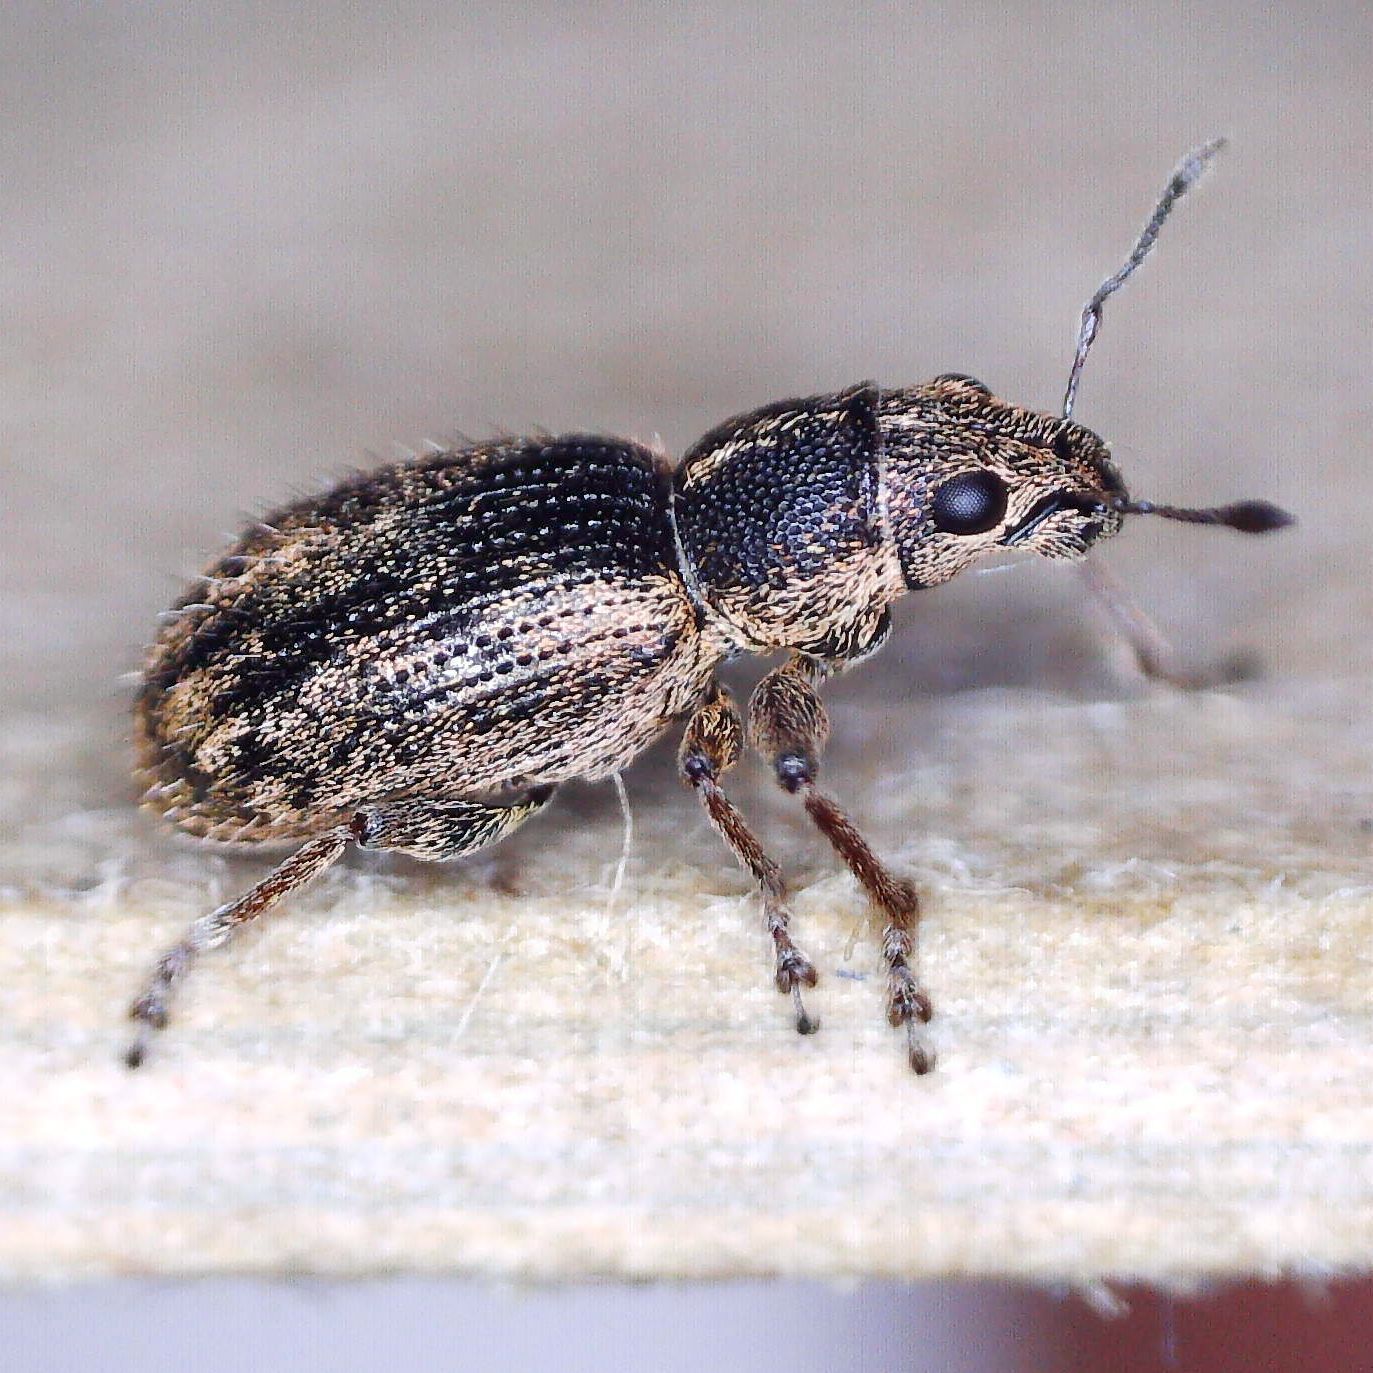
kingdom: Animalia
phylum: Arthropoda
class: Insecta
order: Coleoptera
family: Curculionidae
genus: Andrion
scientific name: Andrion regensteinense
